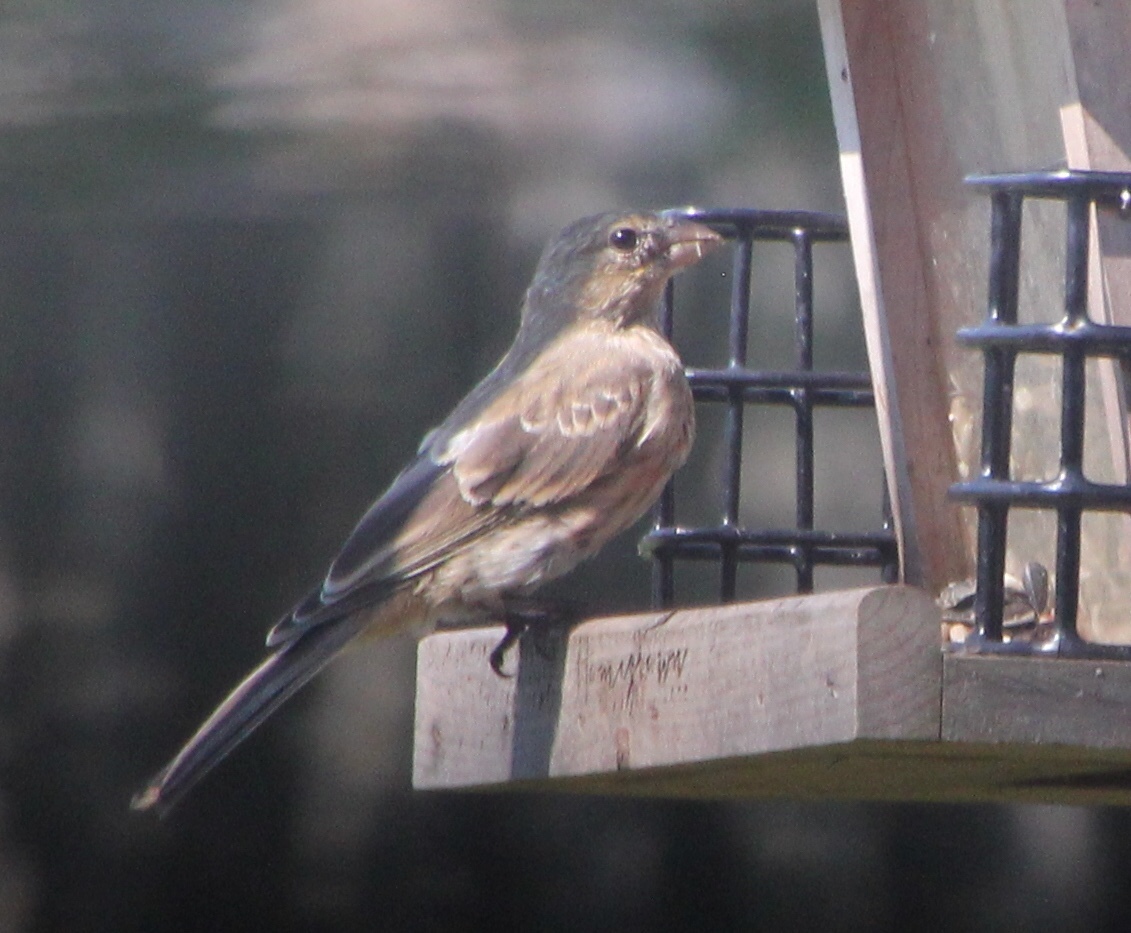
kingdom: Animalia
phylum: Chordata
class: Aves
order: Passeriformes
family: Fringillidae
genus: Haemorhous
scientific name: Haemorhous mexicanus
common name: House finch
